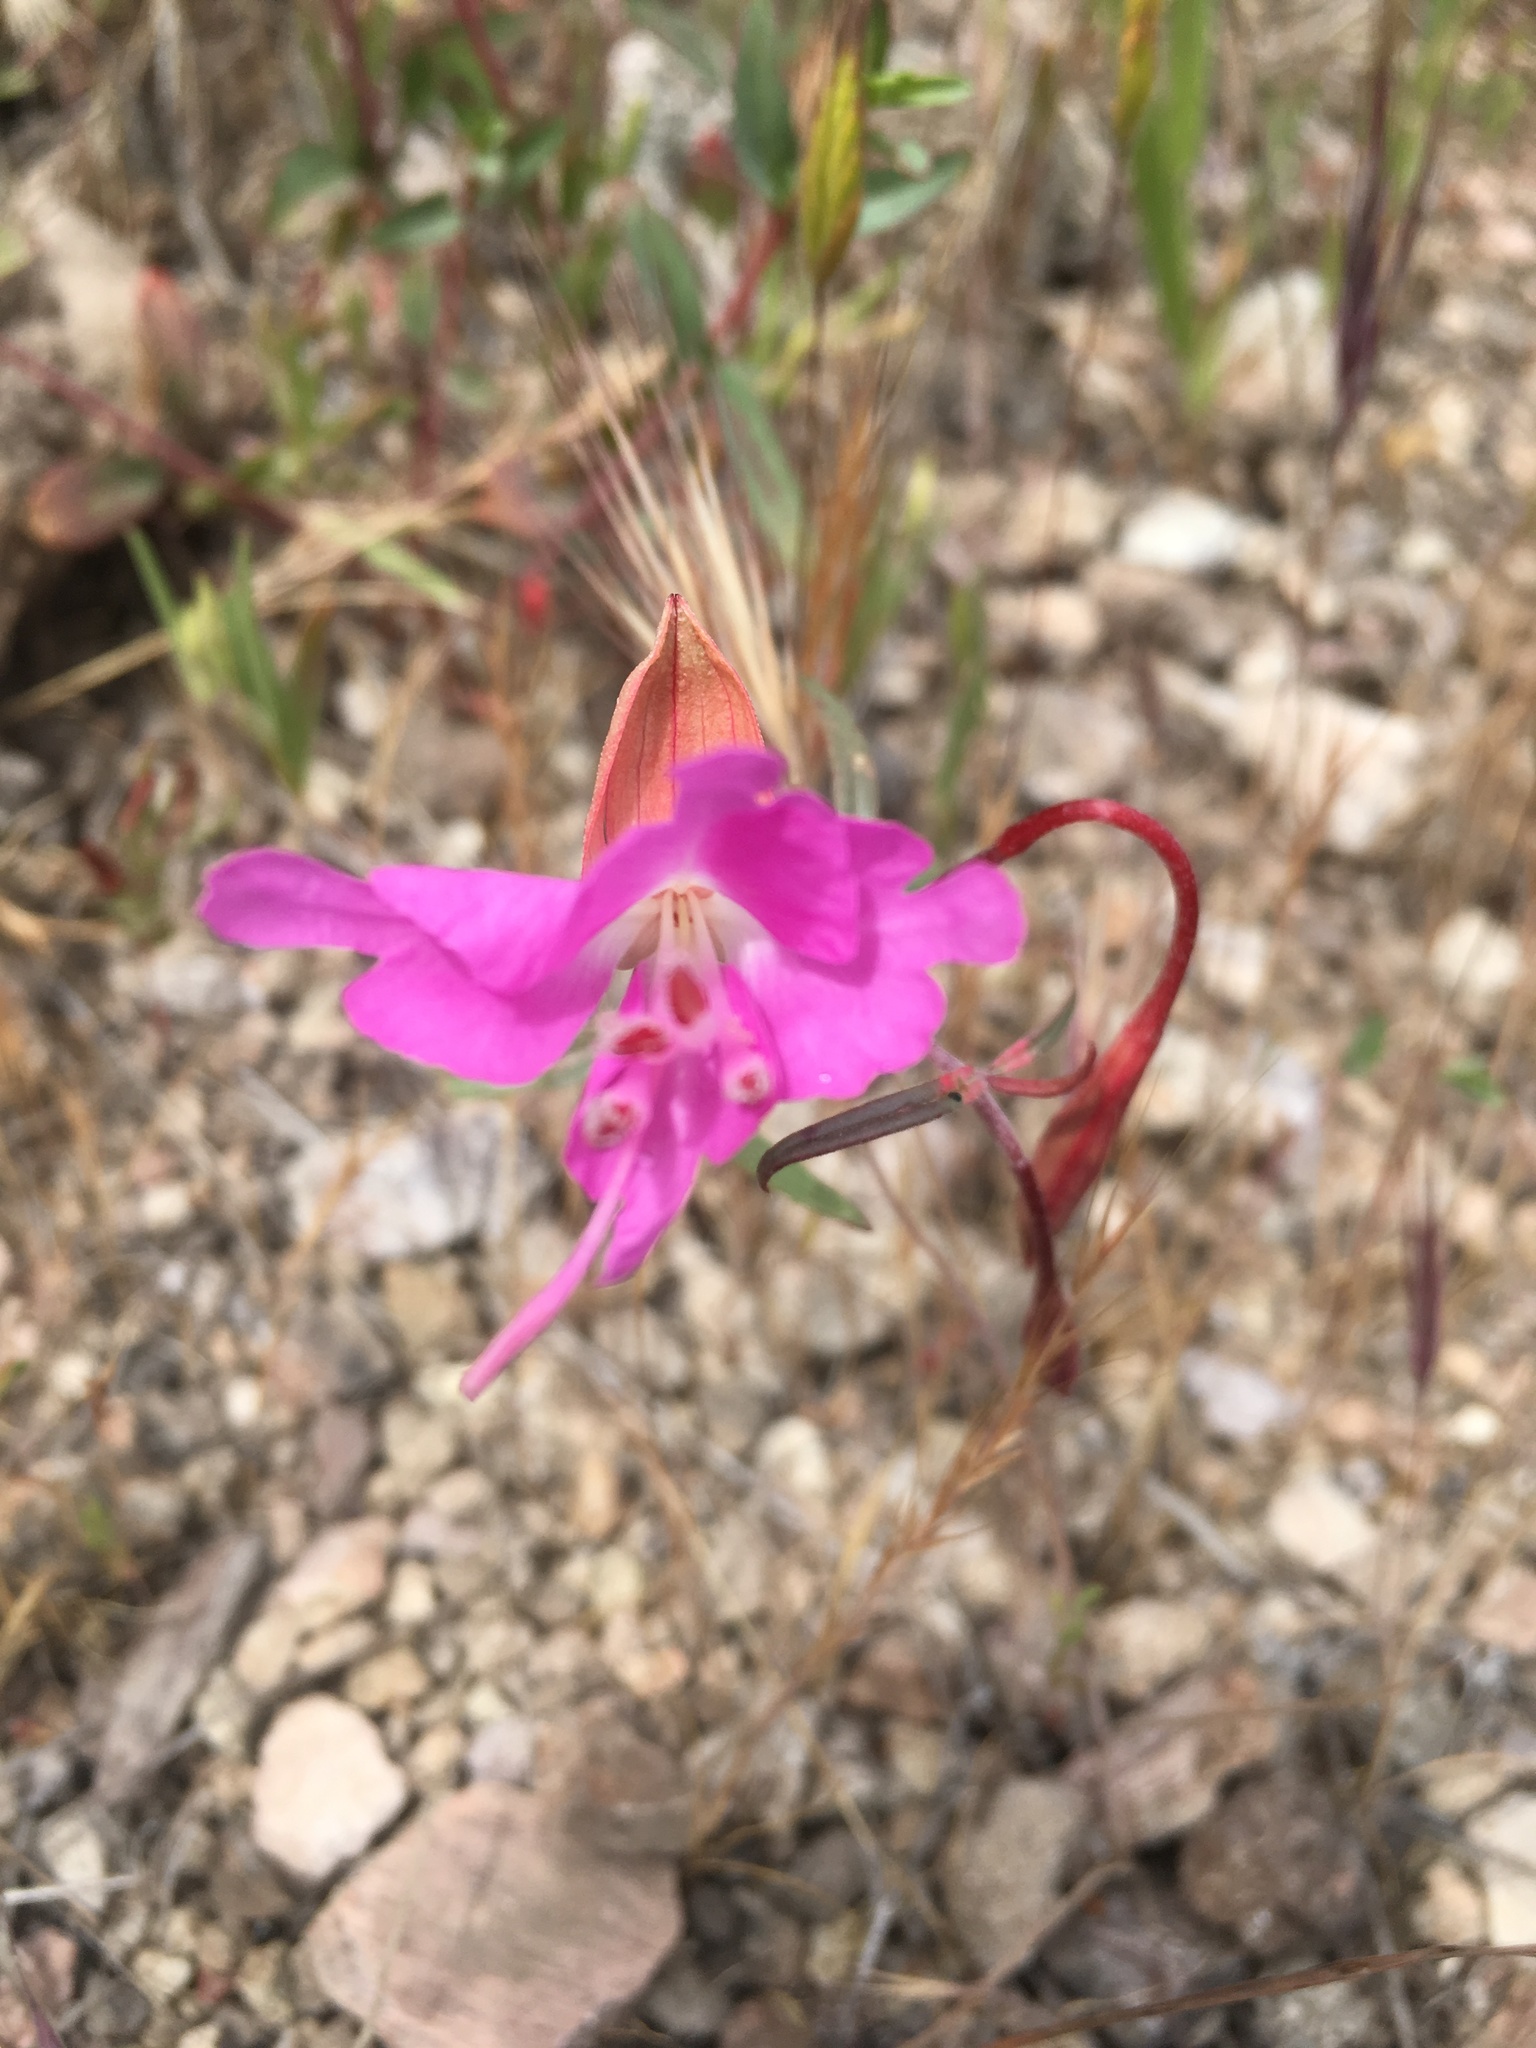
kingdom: Plantae
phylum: Tracheophyta
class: Magnoliopsida
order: Myrtales
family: Onagraceae
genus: Clarkia
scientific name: Clarkia breweri
